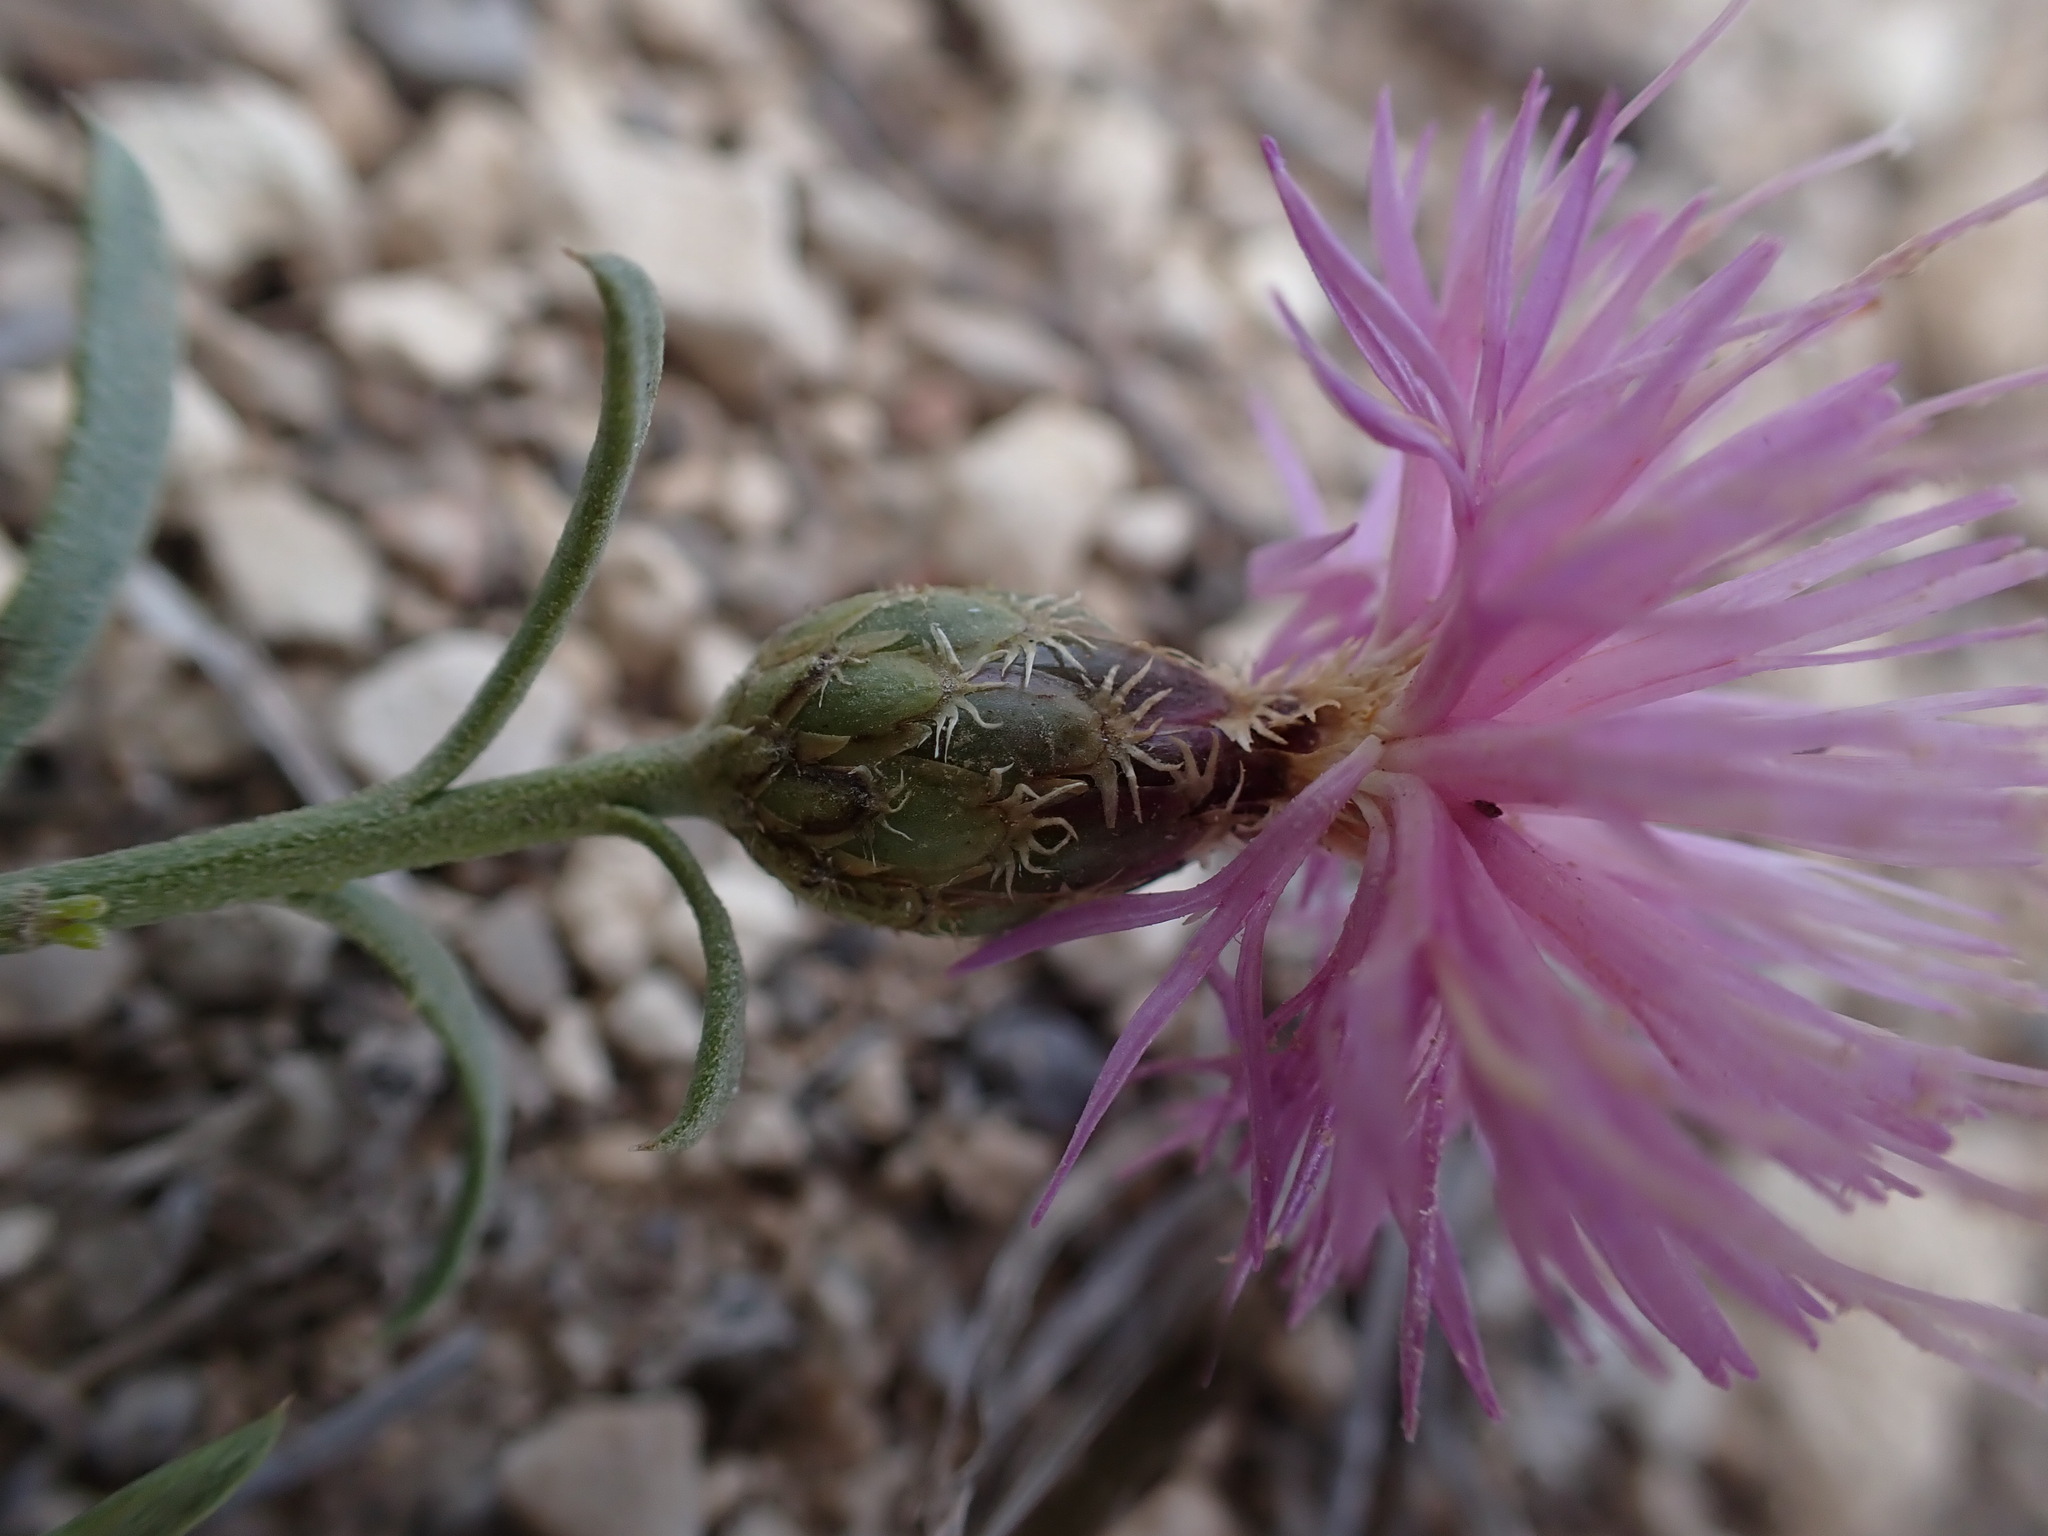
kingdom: Plantae
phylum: Tracheophyta
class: Magnoliopsida
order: Asterales
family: Asteraceae
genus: Cheirolophus
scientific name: Cheirolophus intybaceus
